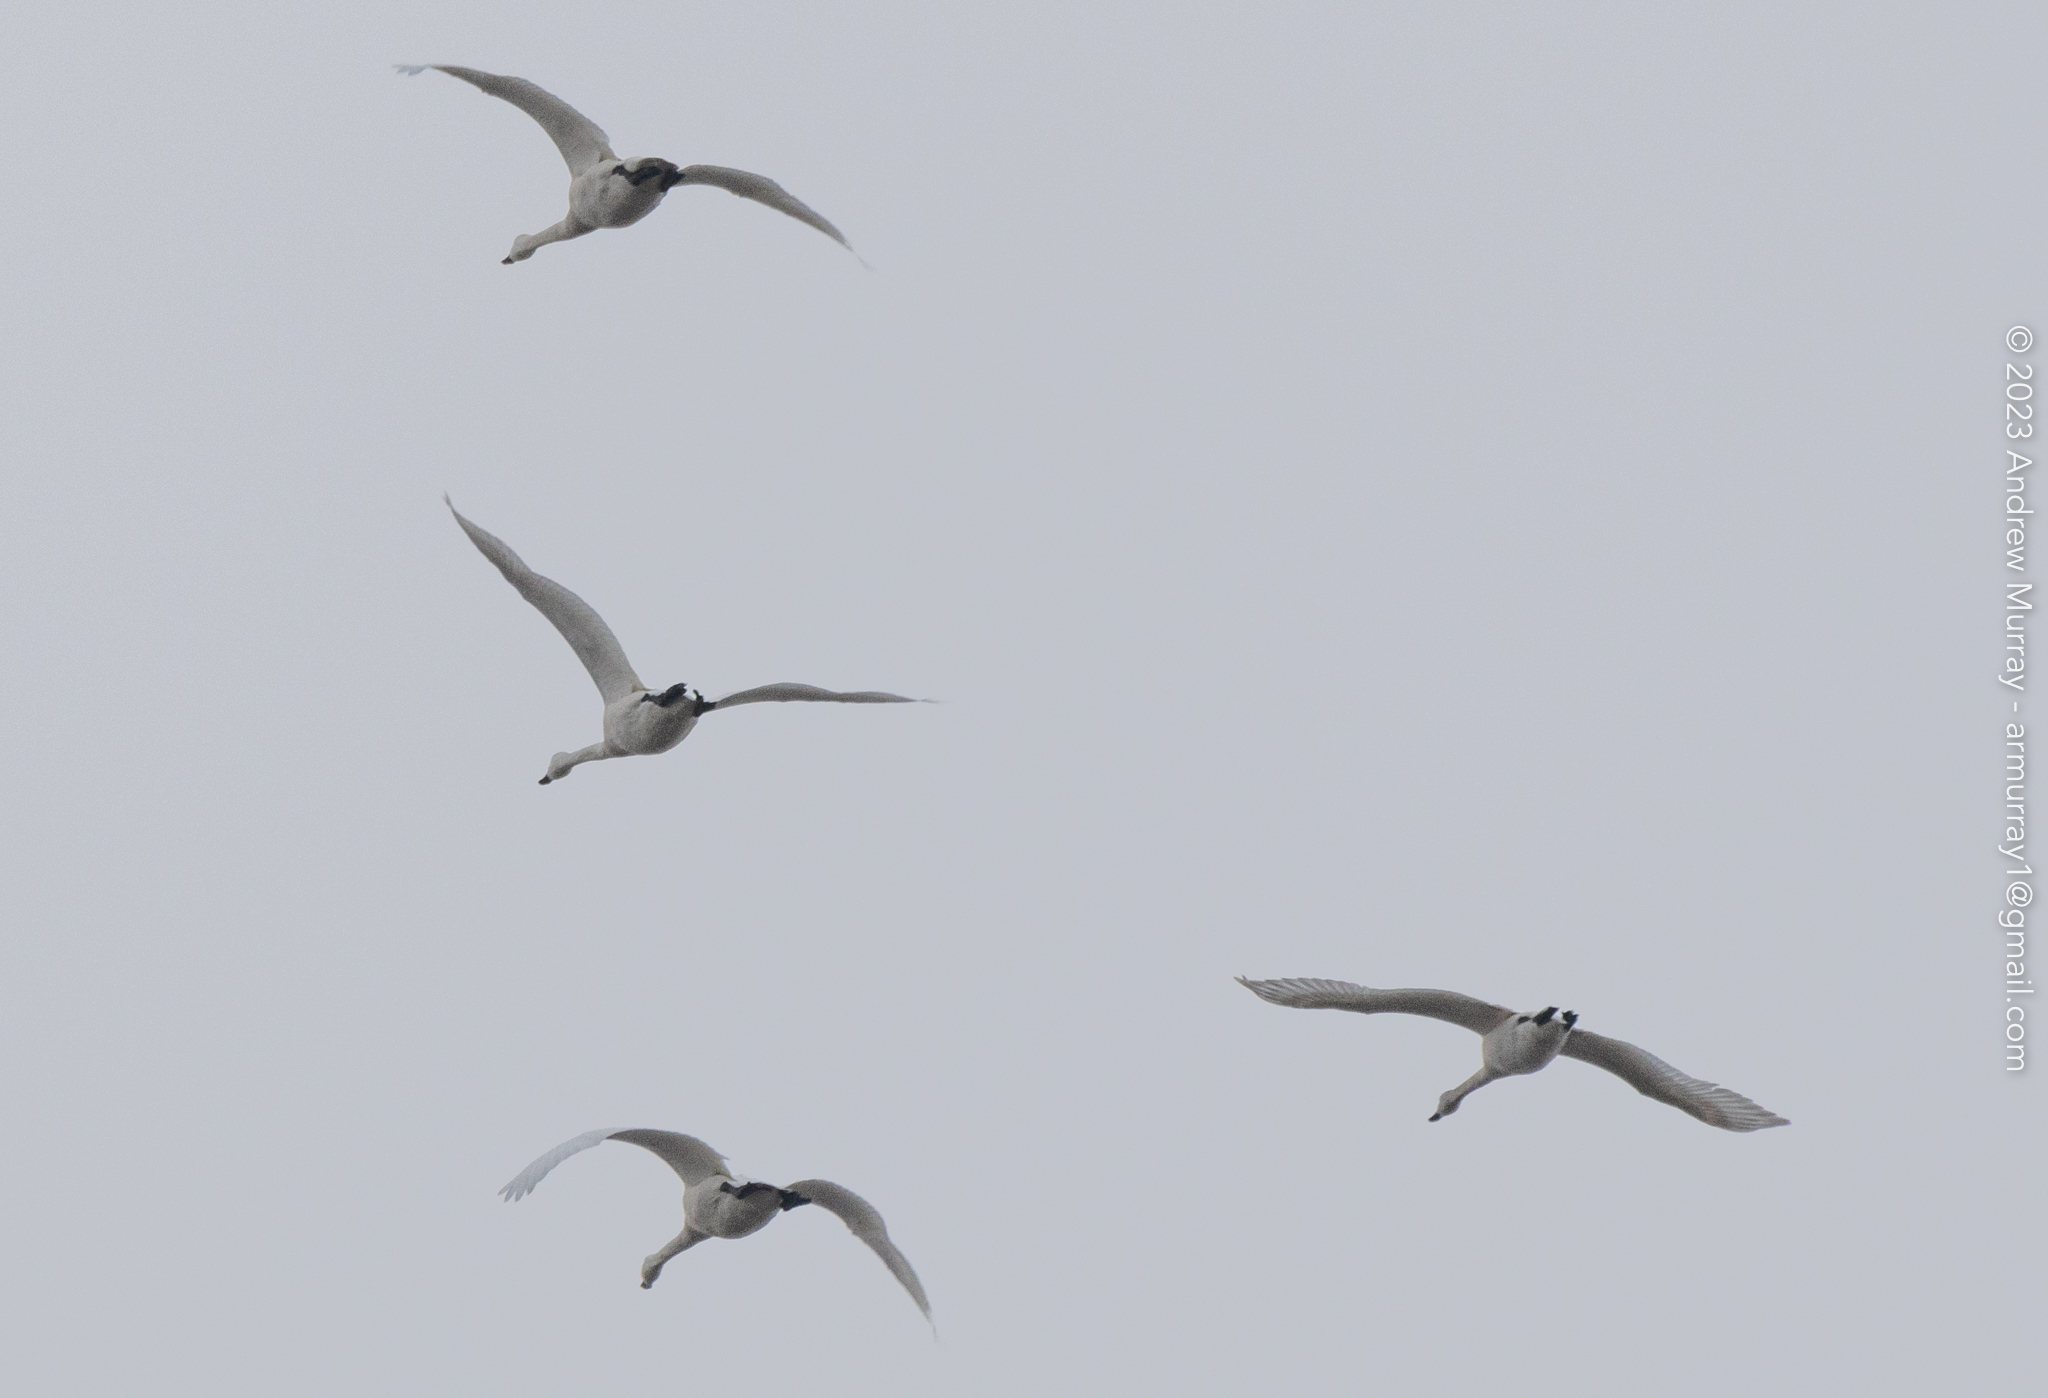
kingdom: Animalia
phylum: Chordata
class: Aves
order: Anseriformes
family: Anatidae
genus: Cygnus
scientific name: Cygnus columbianus
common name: Tundra swan
